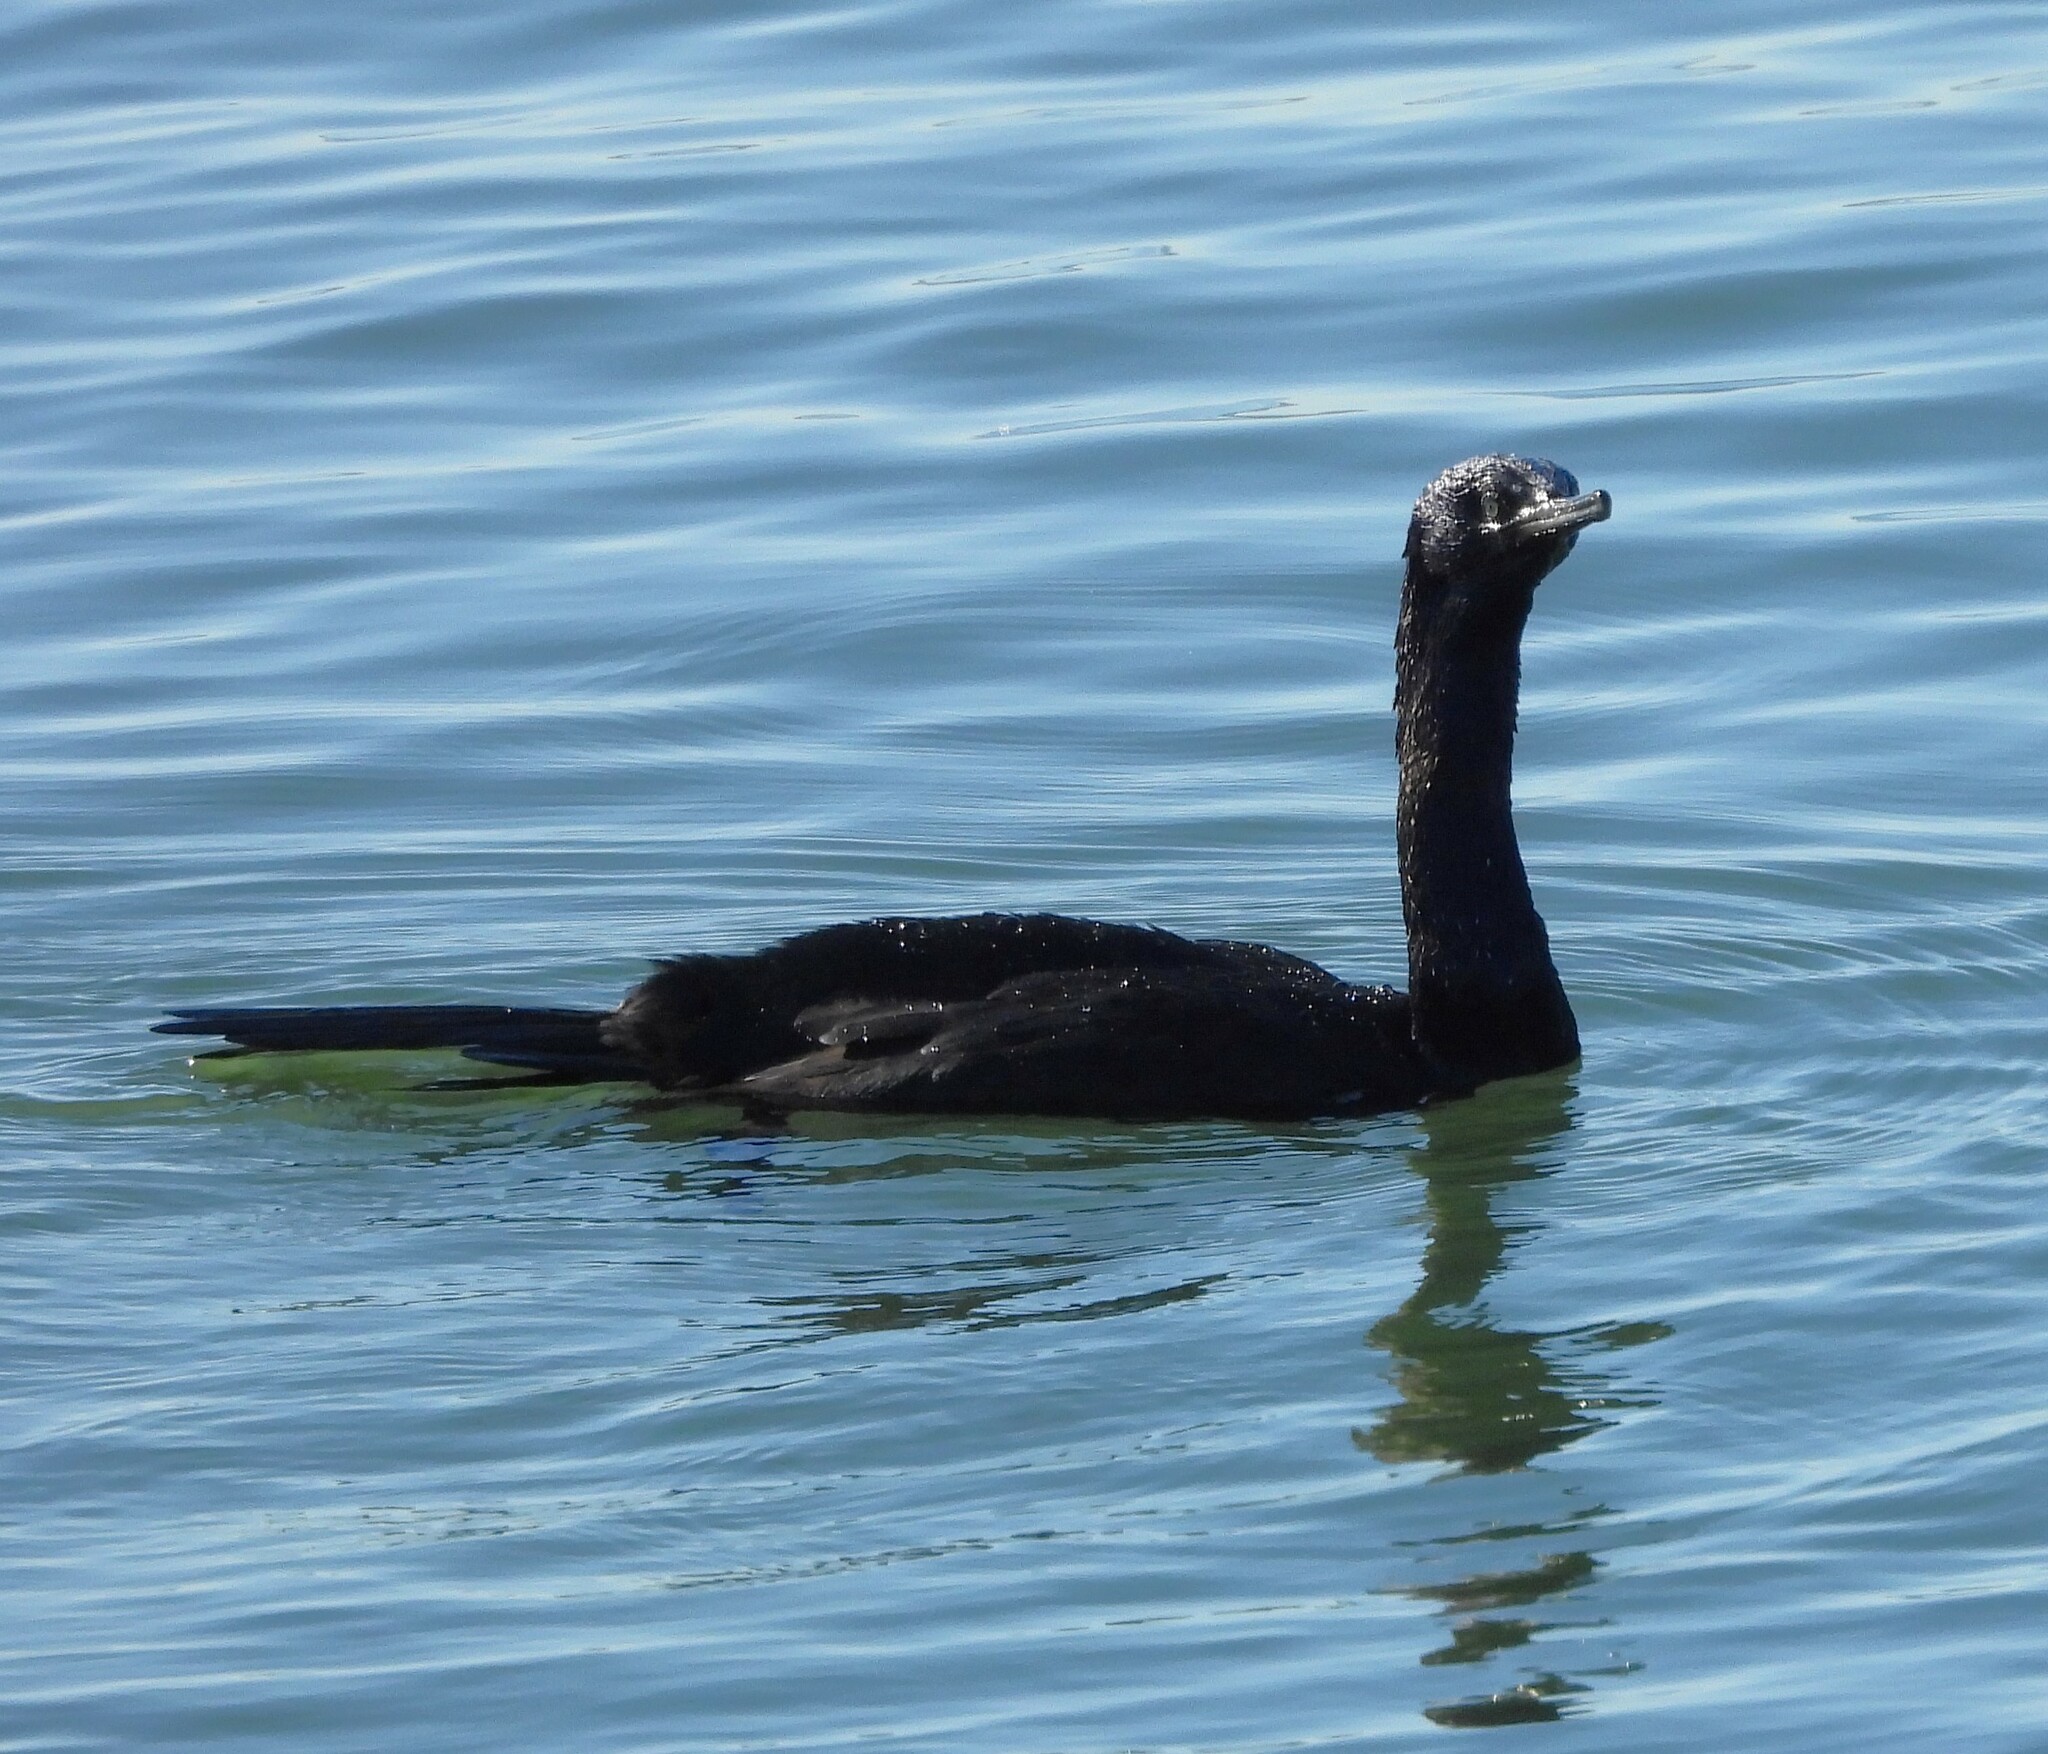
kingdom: Animalia
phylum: Chordata
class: Aves
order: Suliformes
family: Phalacrocoracidae
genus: Phalacrocorax
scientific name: Phalacrocorax pelagicus
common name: Pelagic cormorant
